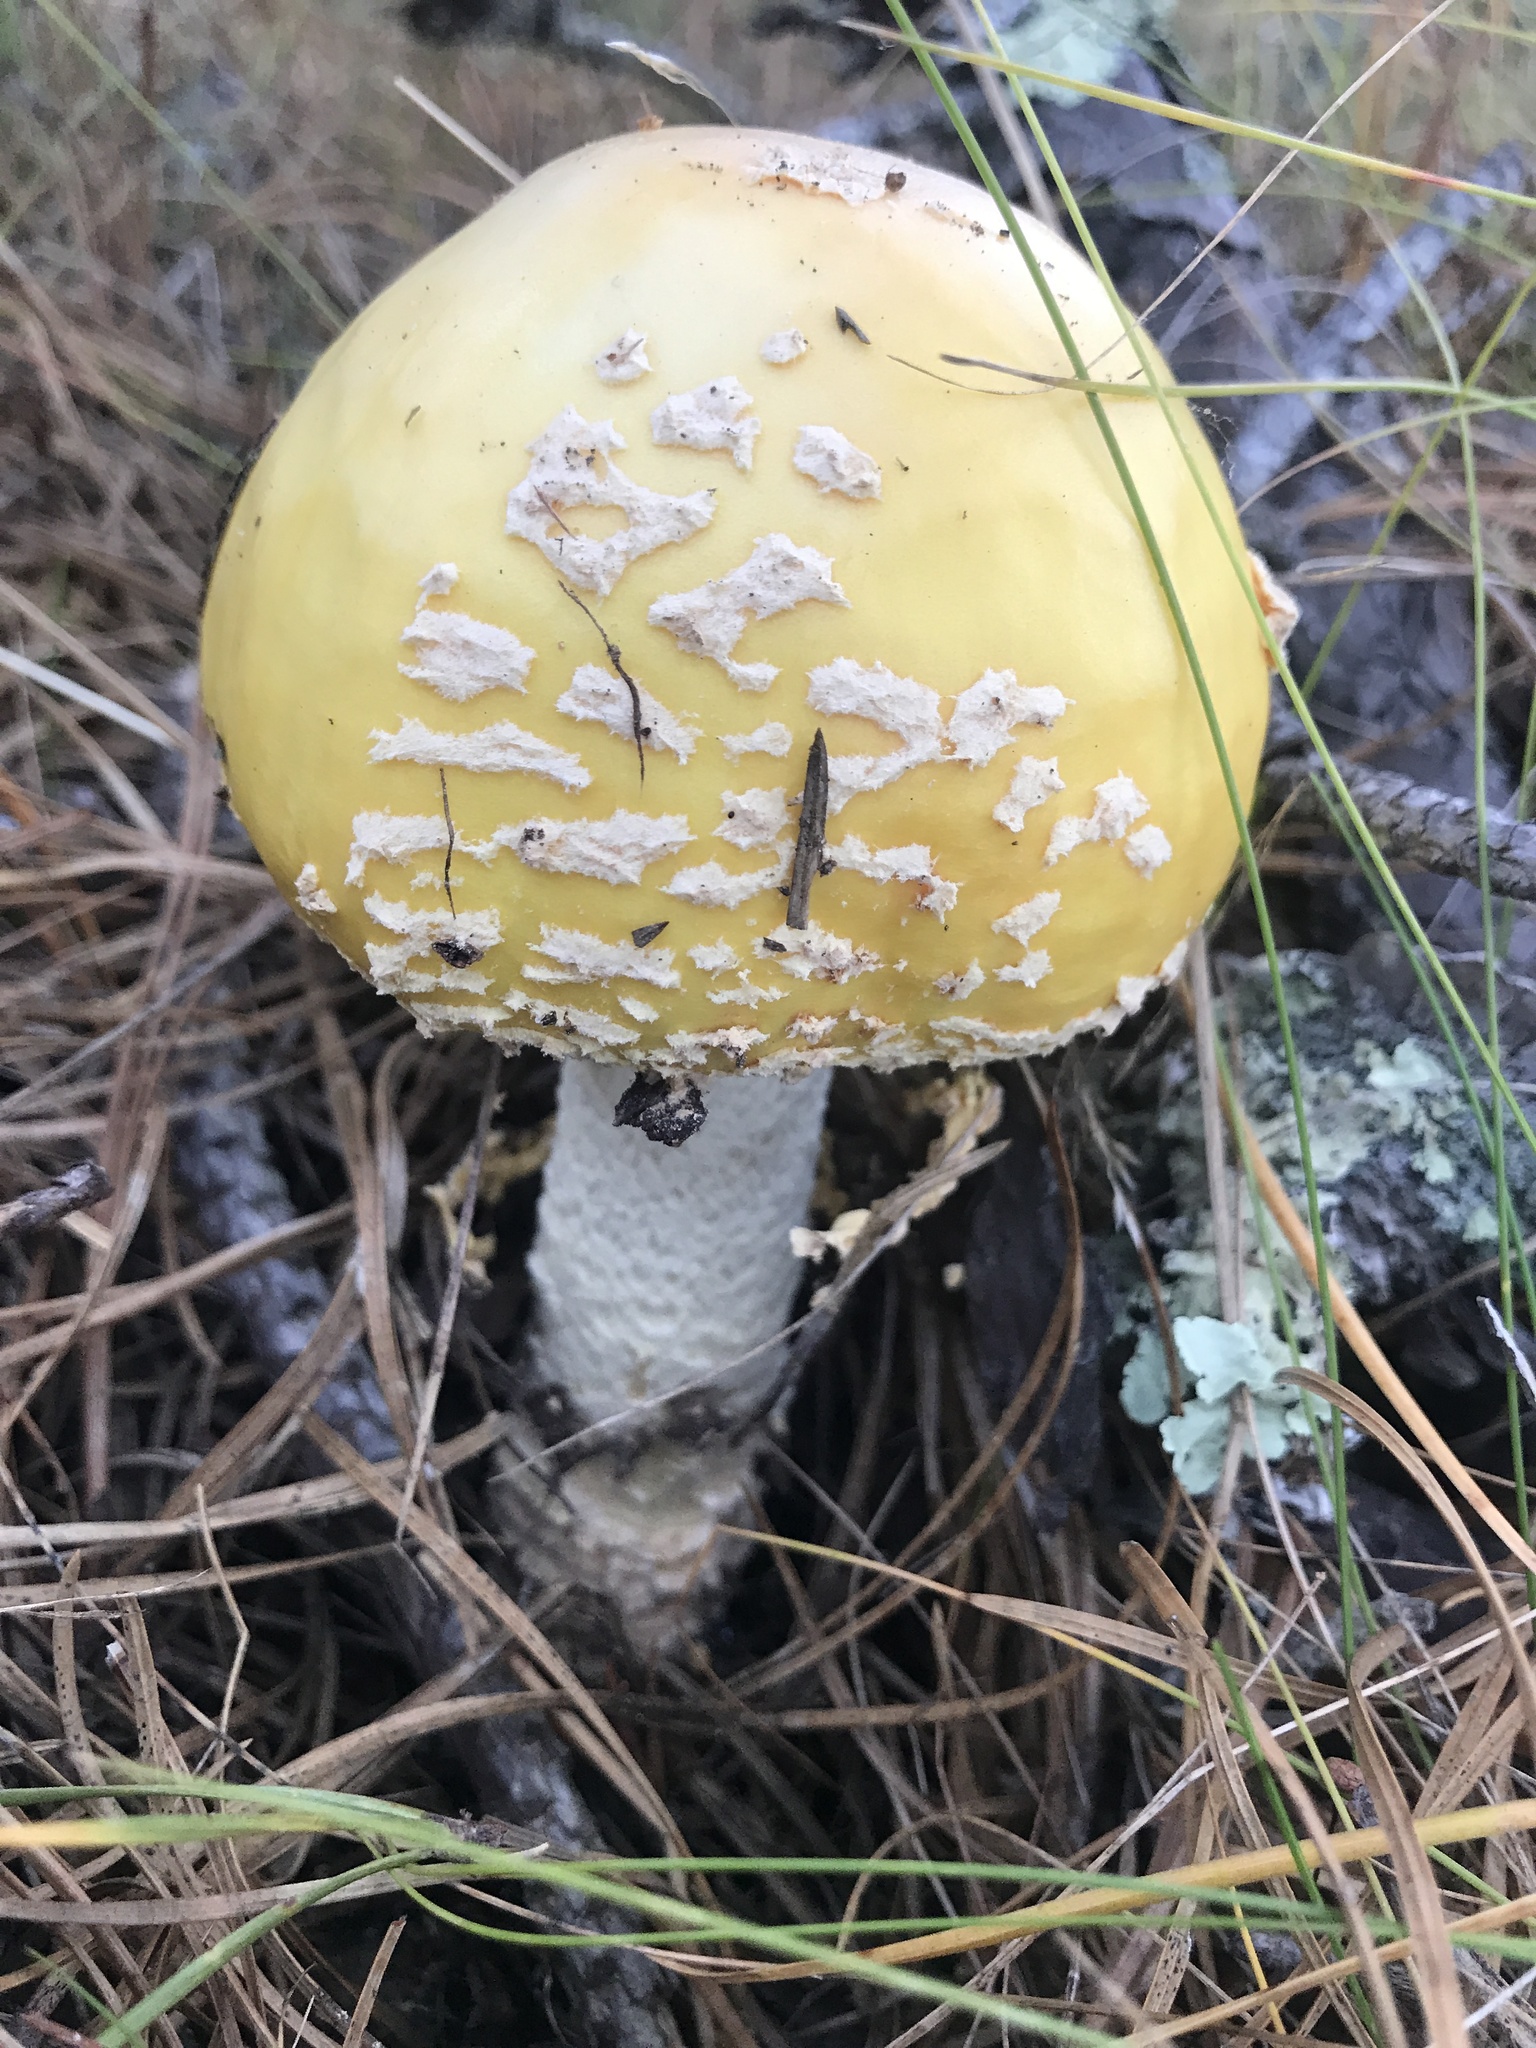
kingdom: Fungi
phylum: Basidiomycota
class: Agaricomycetes
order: Agaricales
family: Amanitaceae
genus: Amanita
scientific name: Amanita muscaria
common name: Fly agaric
